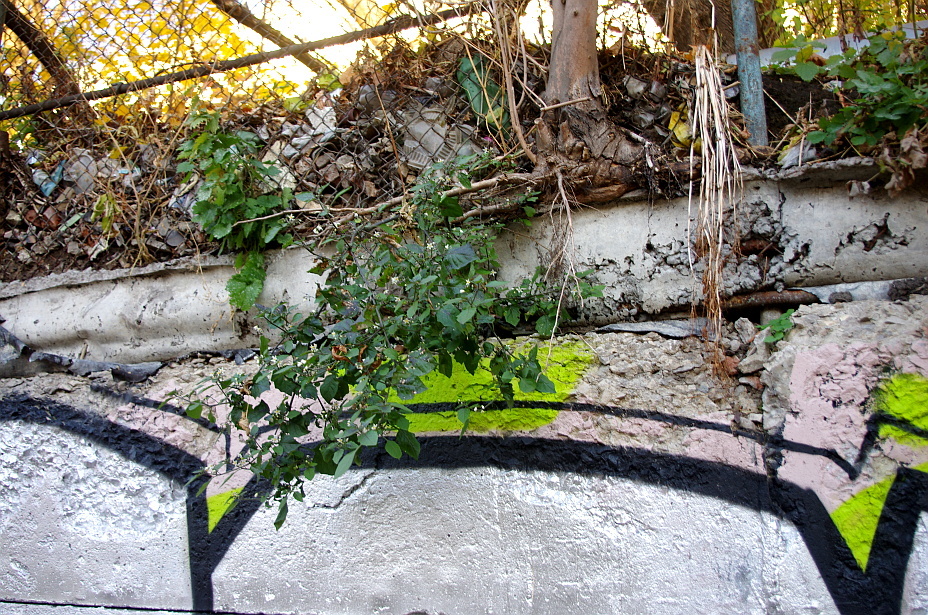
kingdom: Plantae
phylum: Tracheophyta
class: Magnoliopsida
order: Solanales
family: Solanaceae
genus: Solanum
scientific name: Solanum nigrum
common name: Black nightshade
